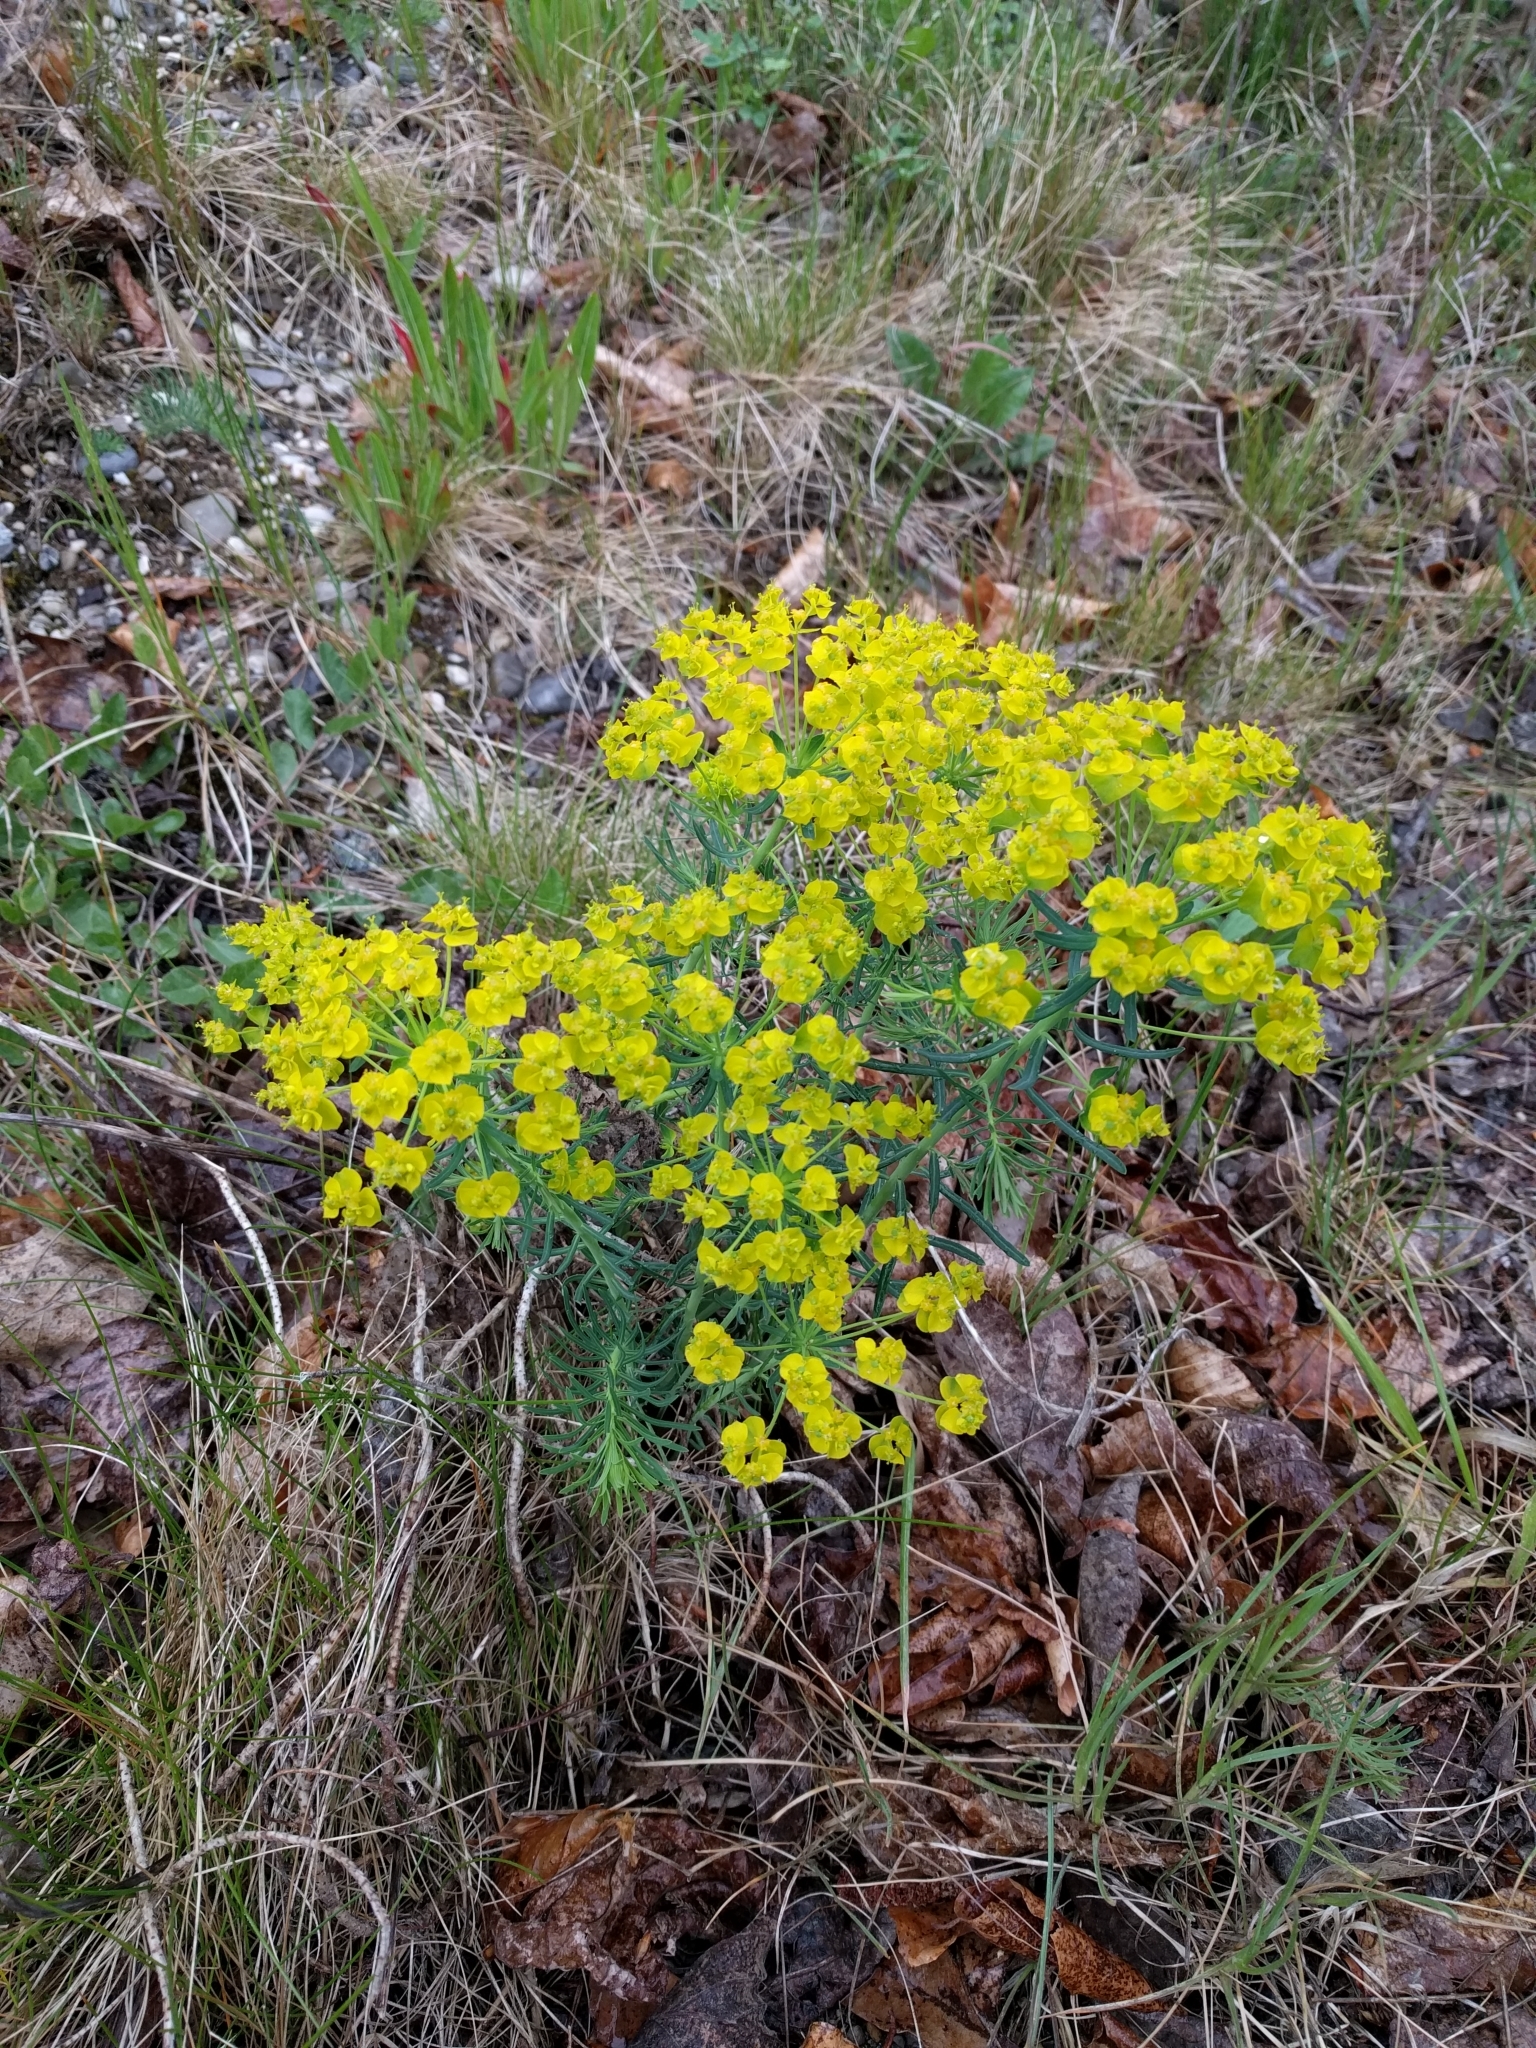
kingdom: Plantae
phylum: Tracheophyta
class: Magnoliopsida
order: Malpighiales
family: Euphorbiaceae
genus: Euphorbia
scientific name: Euphorbia cyparissias
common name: Cypress spurge
